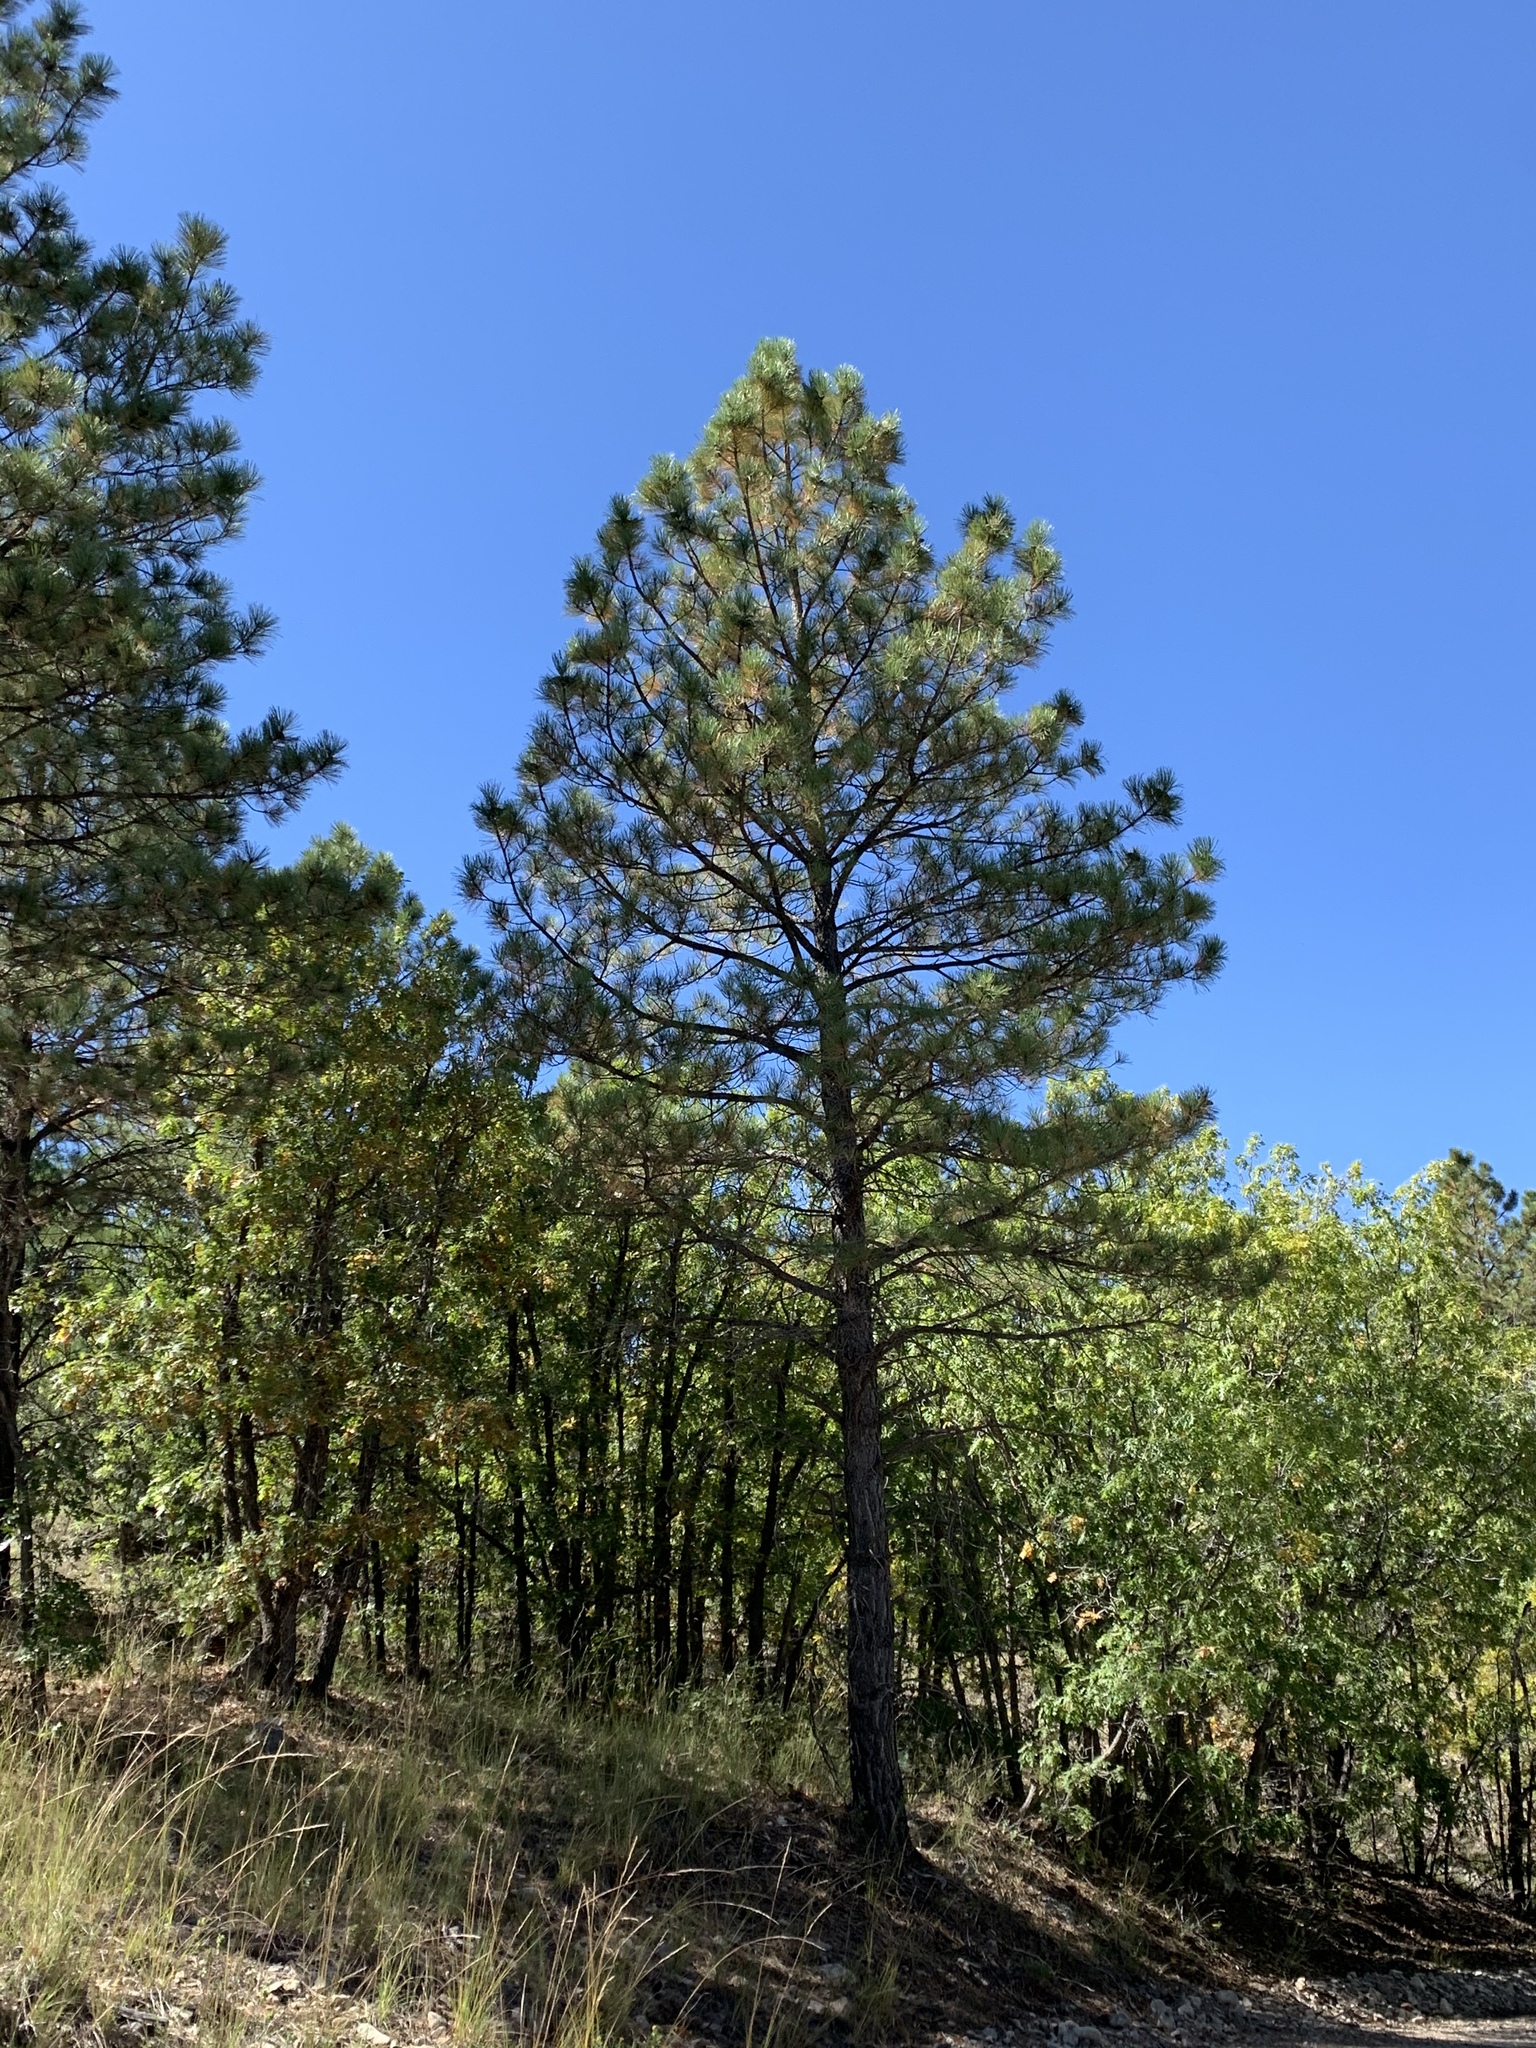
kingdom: Plantae
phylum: Tracheophyta
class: Pinopsida
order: Pinales
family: Pinaceae
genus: Pinus
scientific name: Pinus ponderosa
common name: Western yellow-pine
